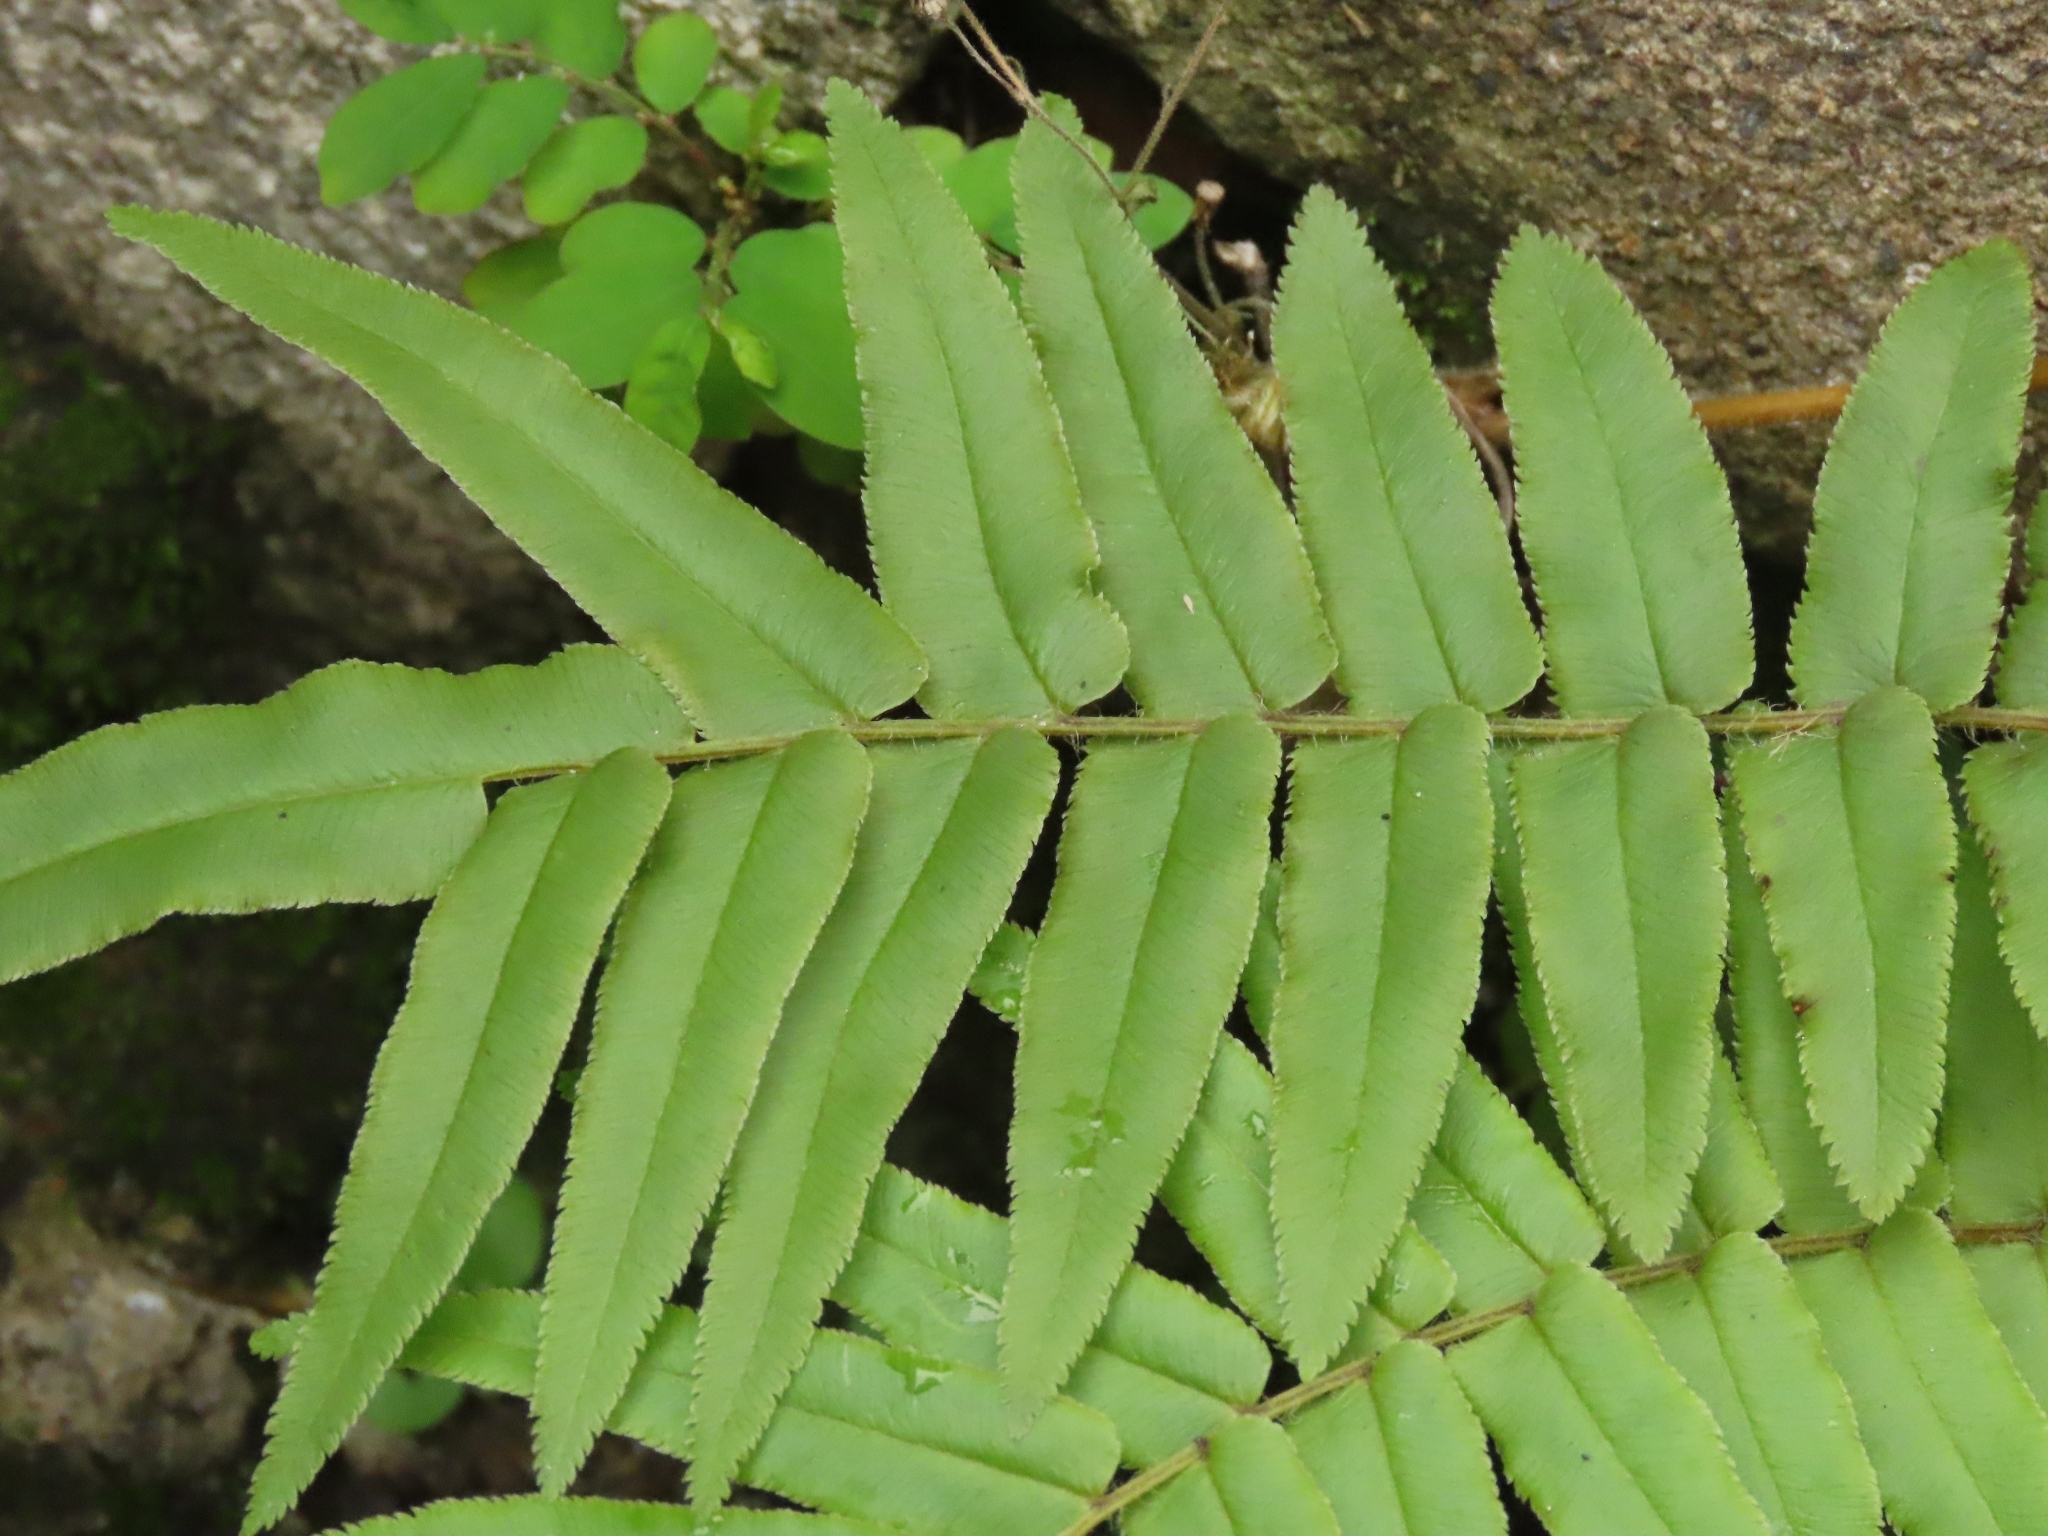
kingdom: Plantae
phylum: Tracheophyta
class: Polypodiopsida
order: Polypodiales
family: Pteridaceae
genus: Pteris
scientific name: Pteris vittata
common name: Ladder brake
